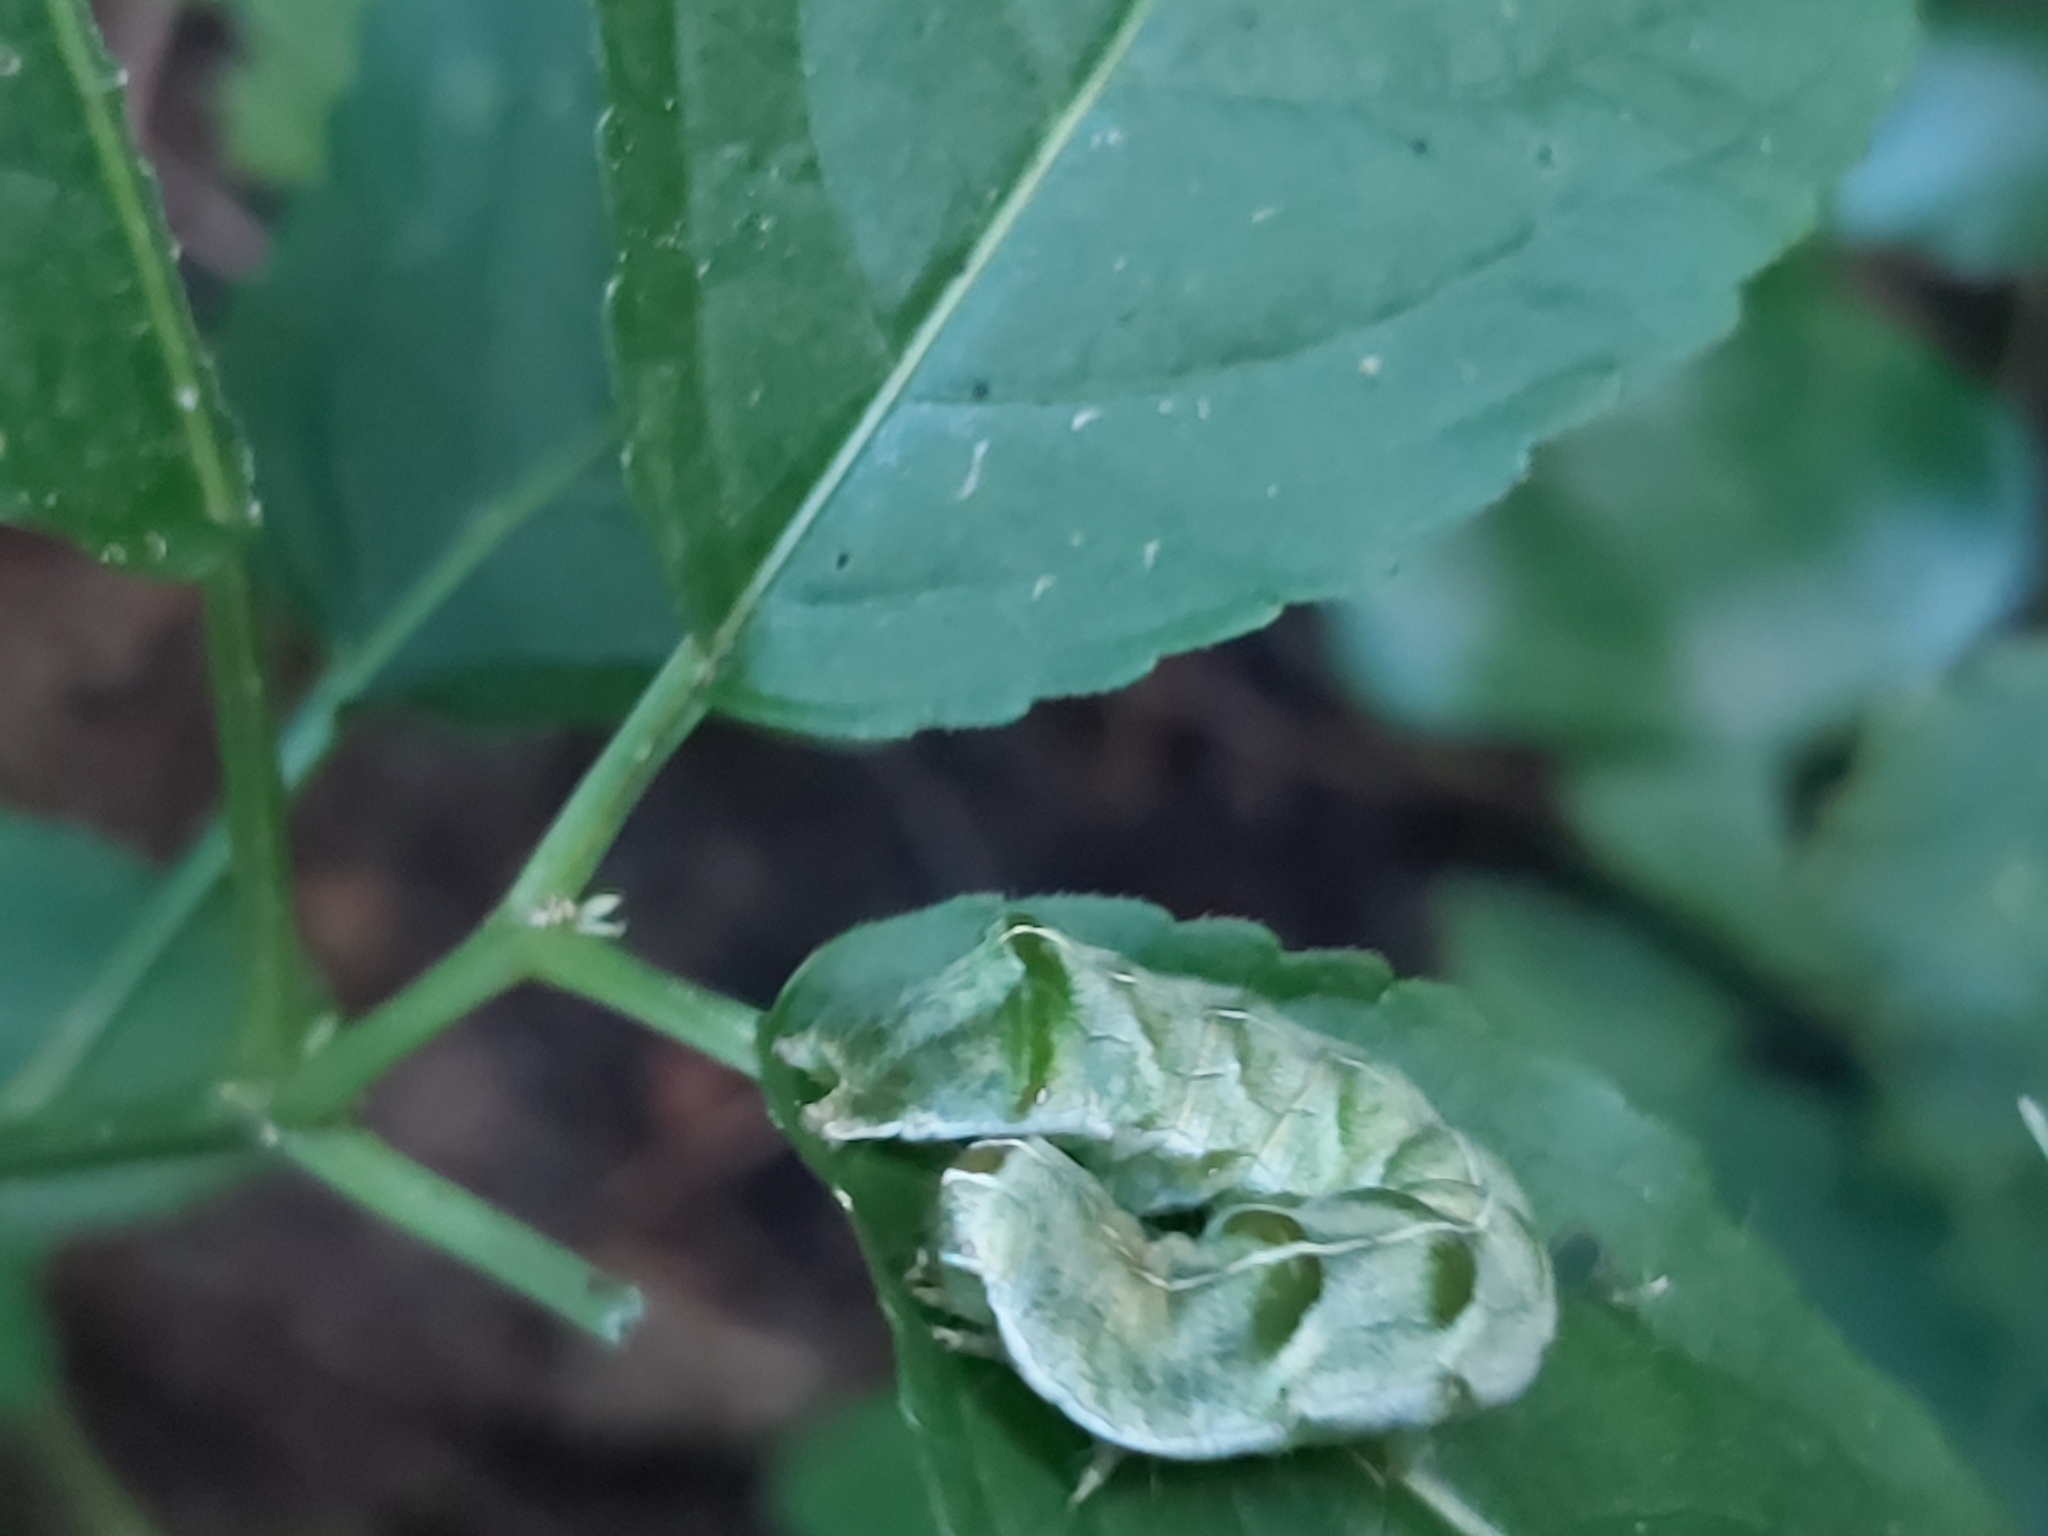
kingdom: Animalia
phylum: Arthropoda
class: Insecta
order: Lepidoptera
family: Noctuidae
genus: Melanchra
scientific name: Melanchra persicariae
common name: Dot moth
